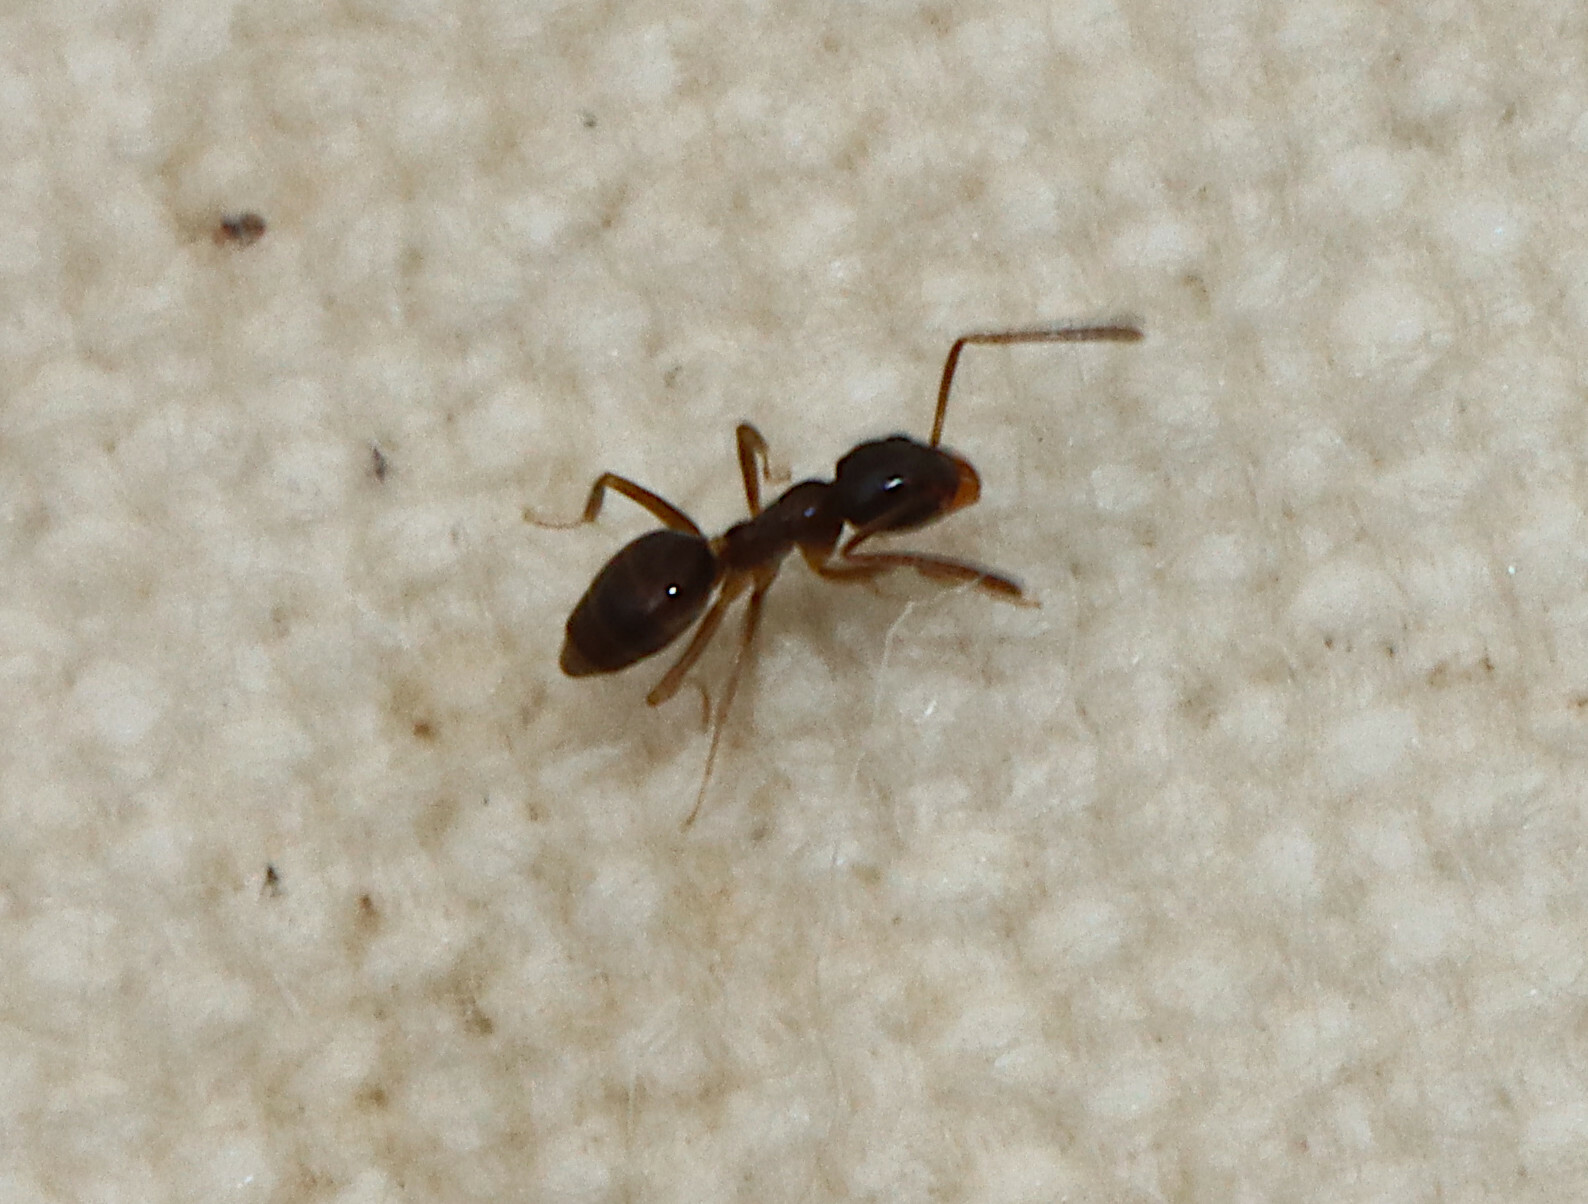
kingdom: Animalia
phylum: Arthropoda
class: Insecta
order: Hymenoptera
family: Formicidae
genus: Tapinoma
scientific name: Tapinoma sessile
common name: Odorous house ant
